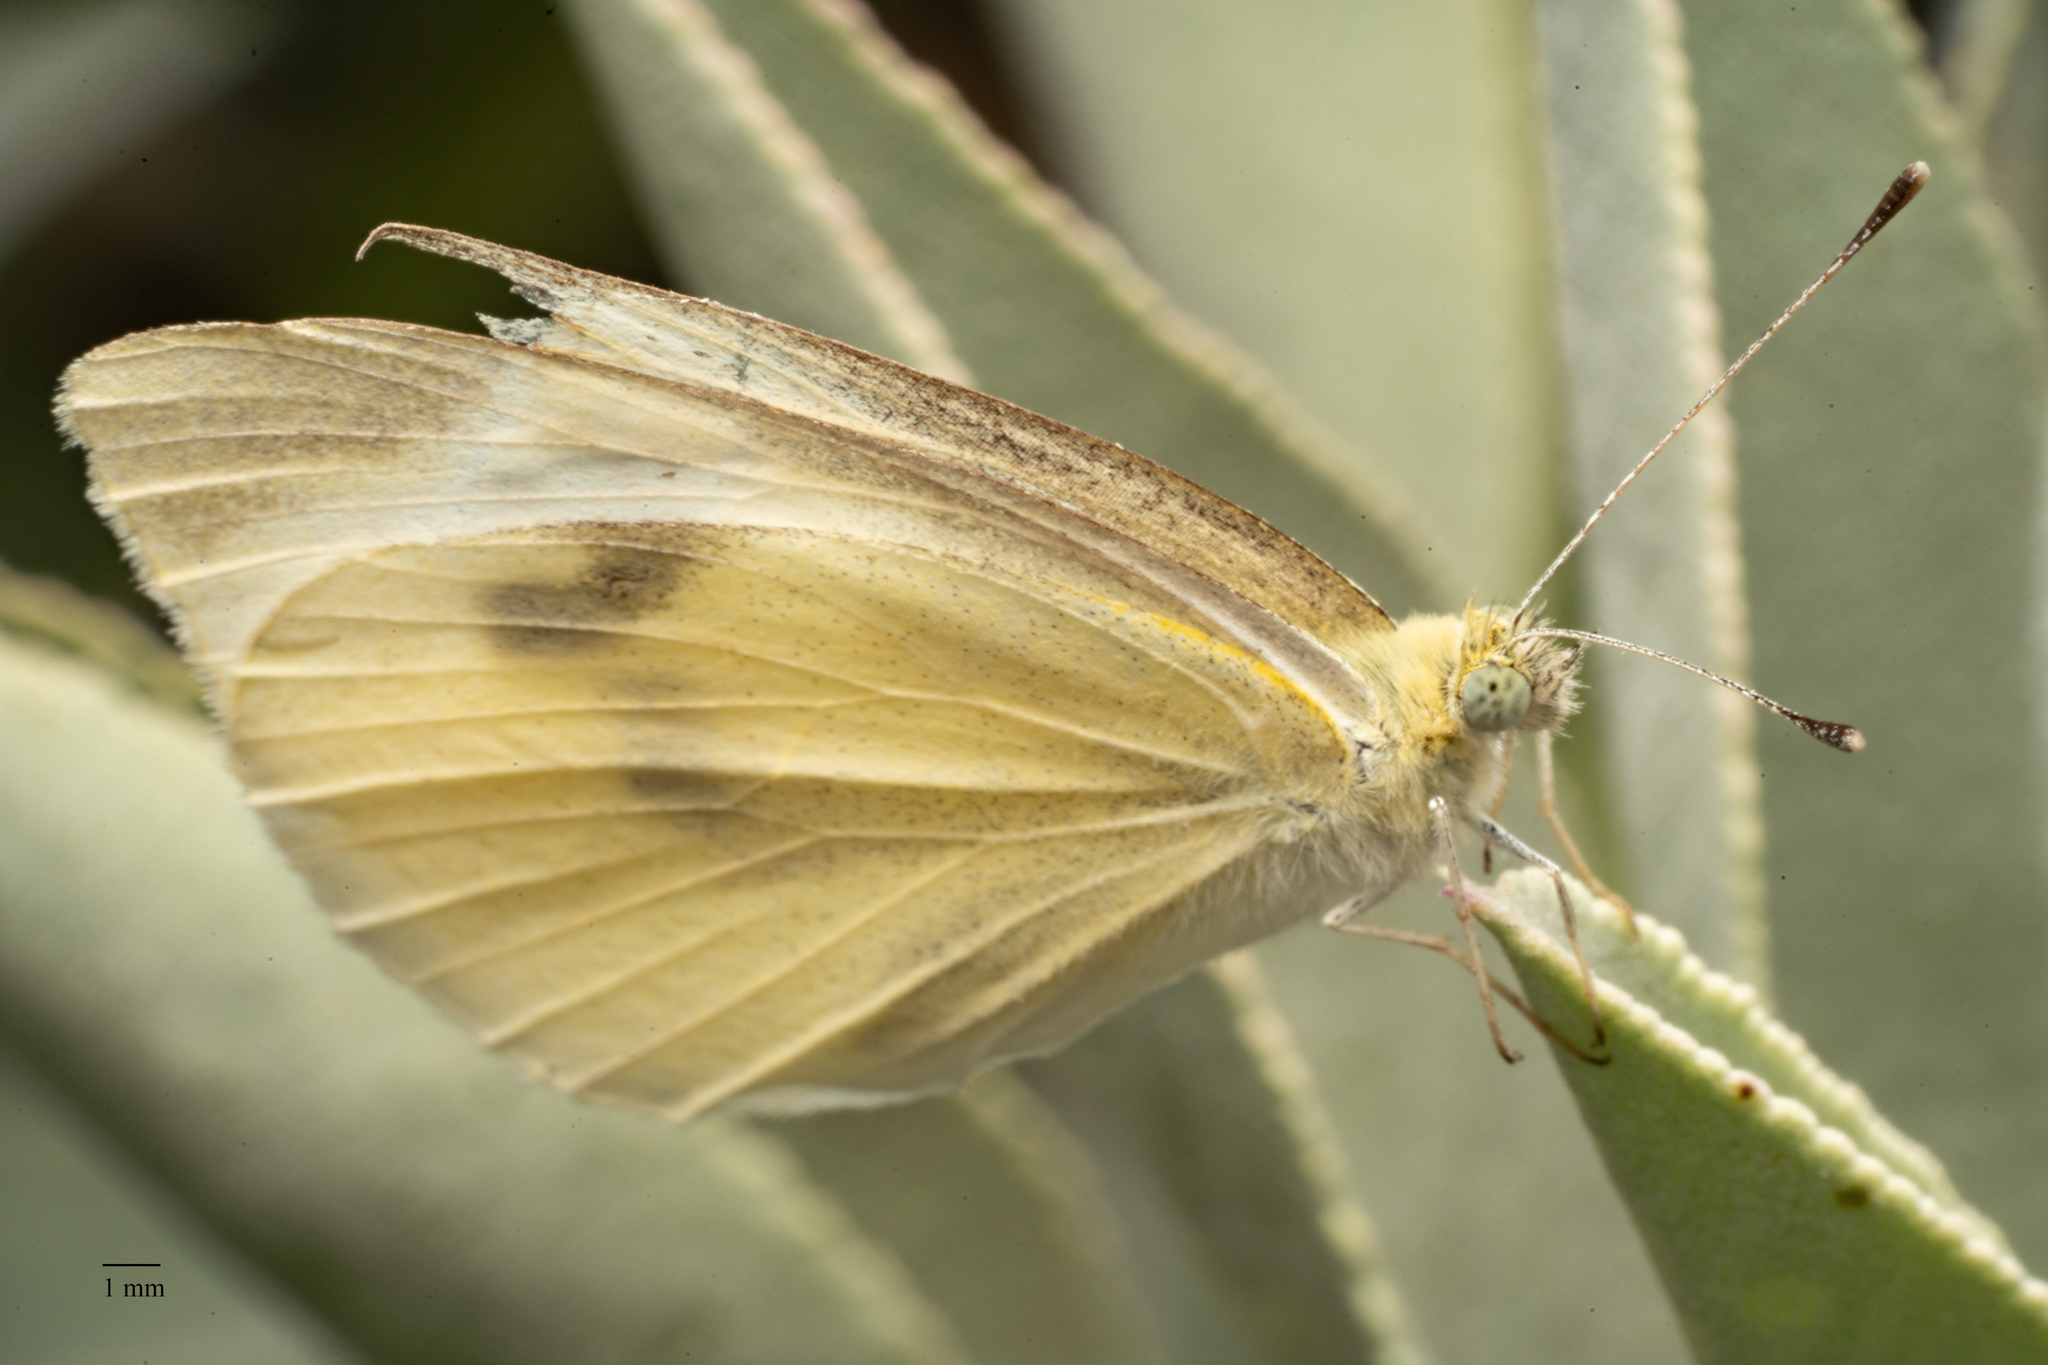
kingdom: Animalia
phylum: Arthropoda
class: Insecta
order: Lepidoptera
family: Pieridae
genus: Pieris
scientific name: Pieris rapae
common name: Small white
